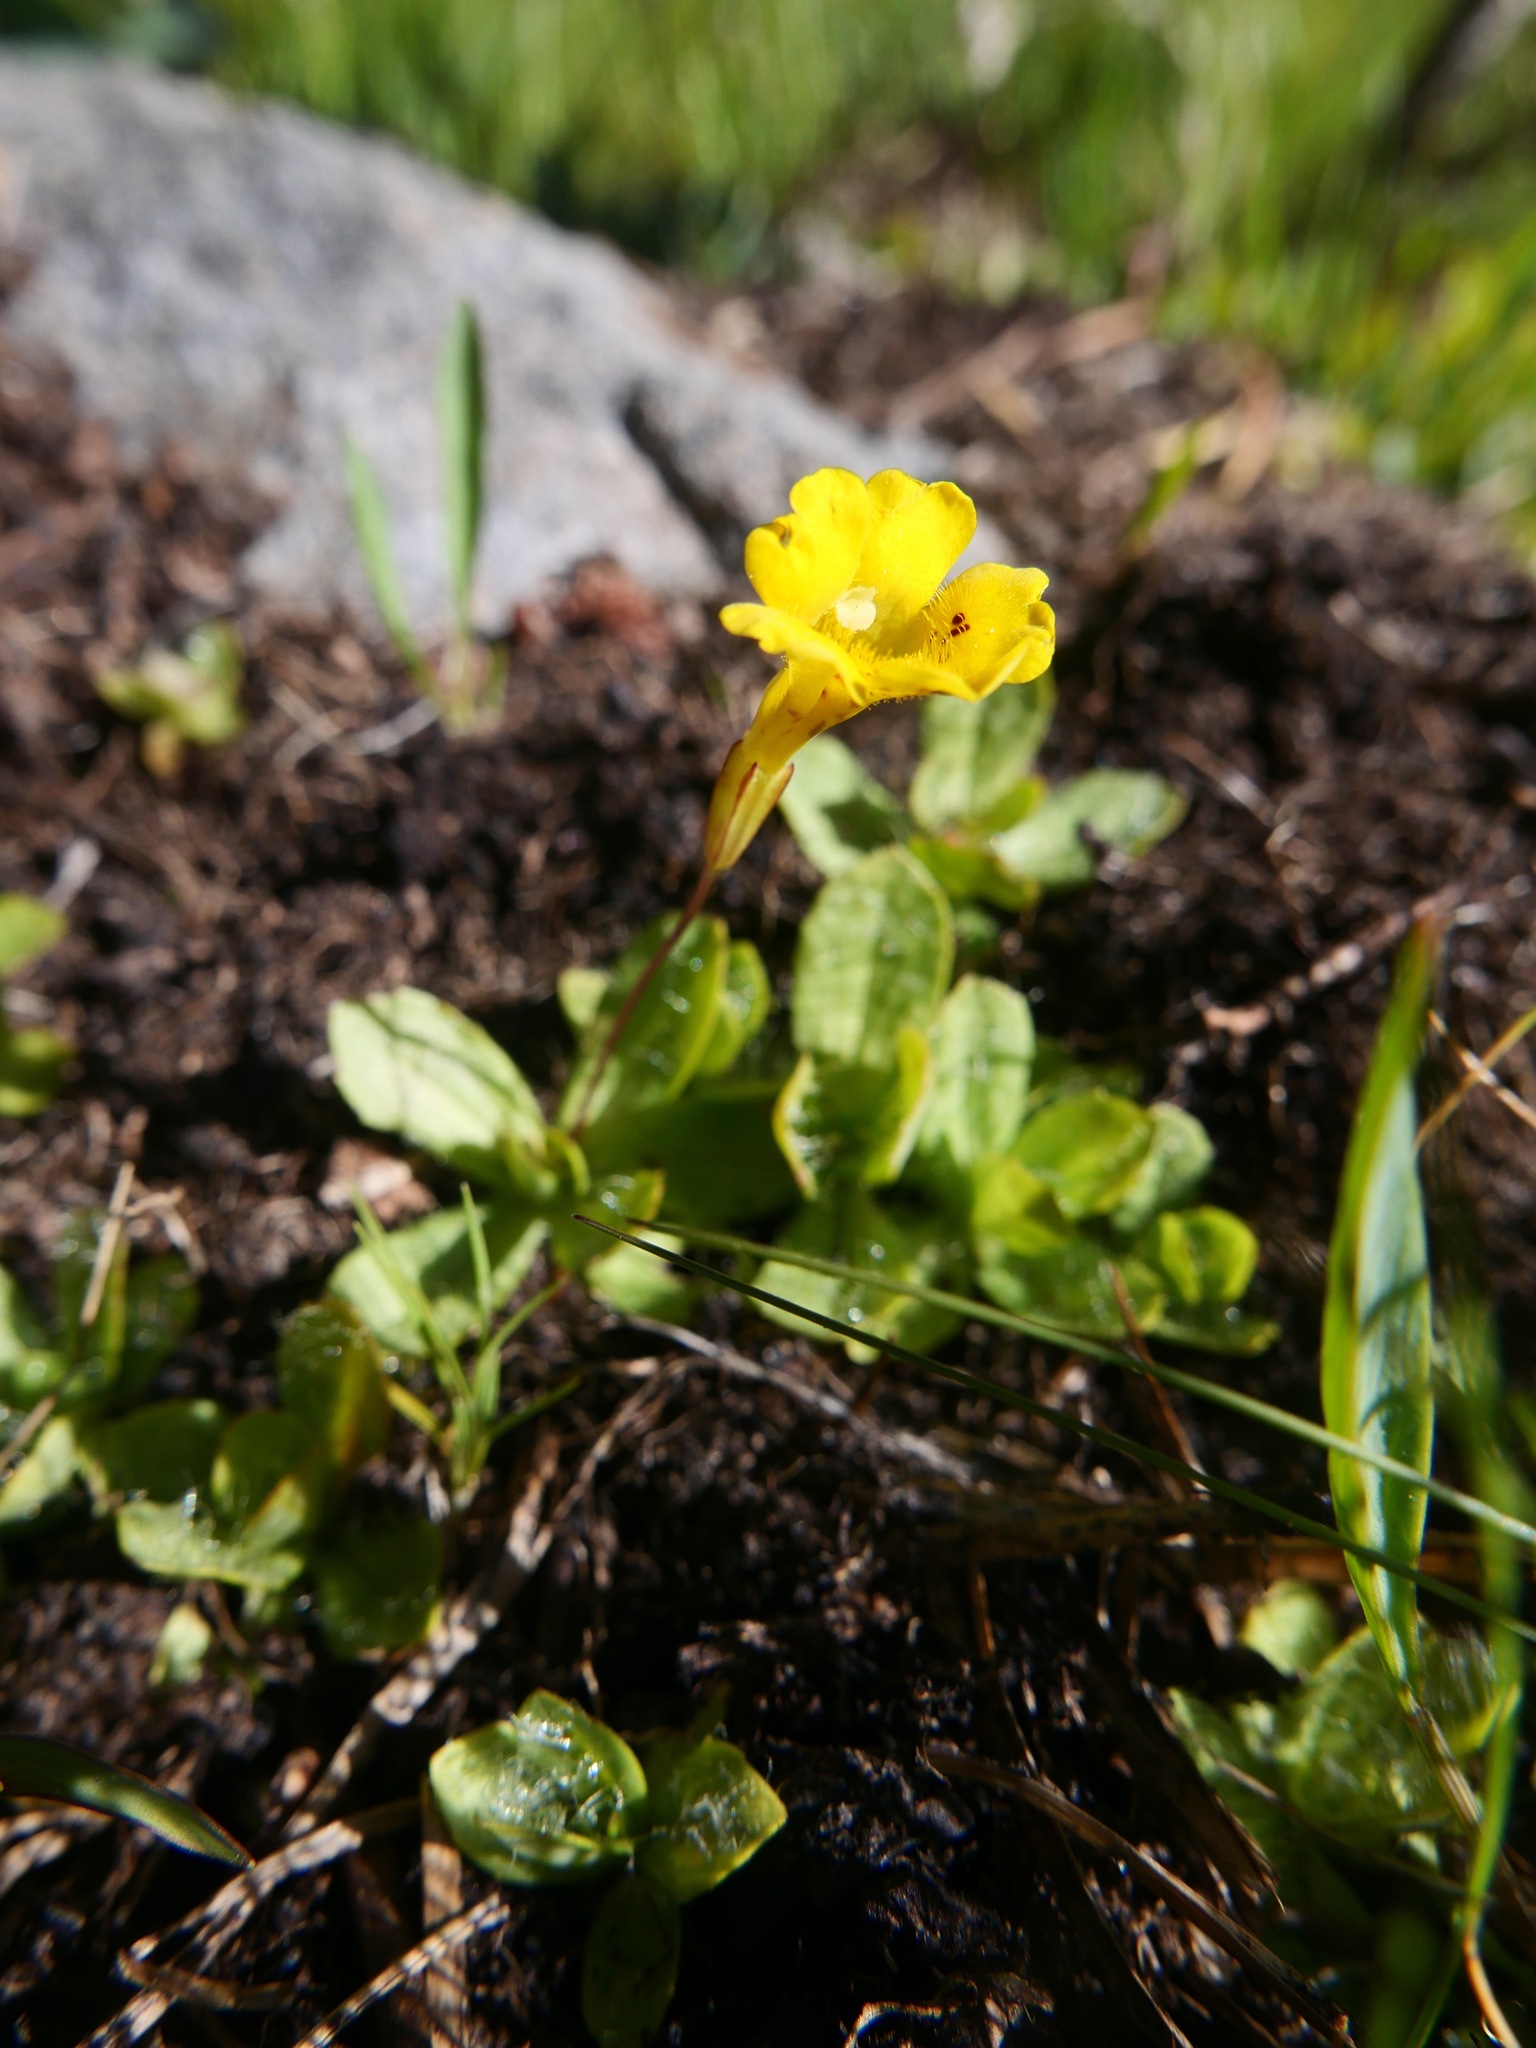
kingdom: Plantae
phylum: Tracheophyta
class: Magnoliopsida
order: Lamiales
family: Phrymaceae
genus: Erythranthe
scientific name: Erythranthe primuloides
